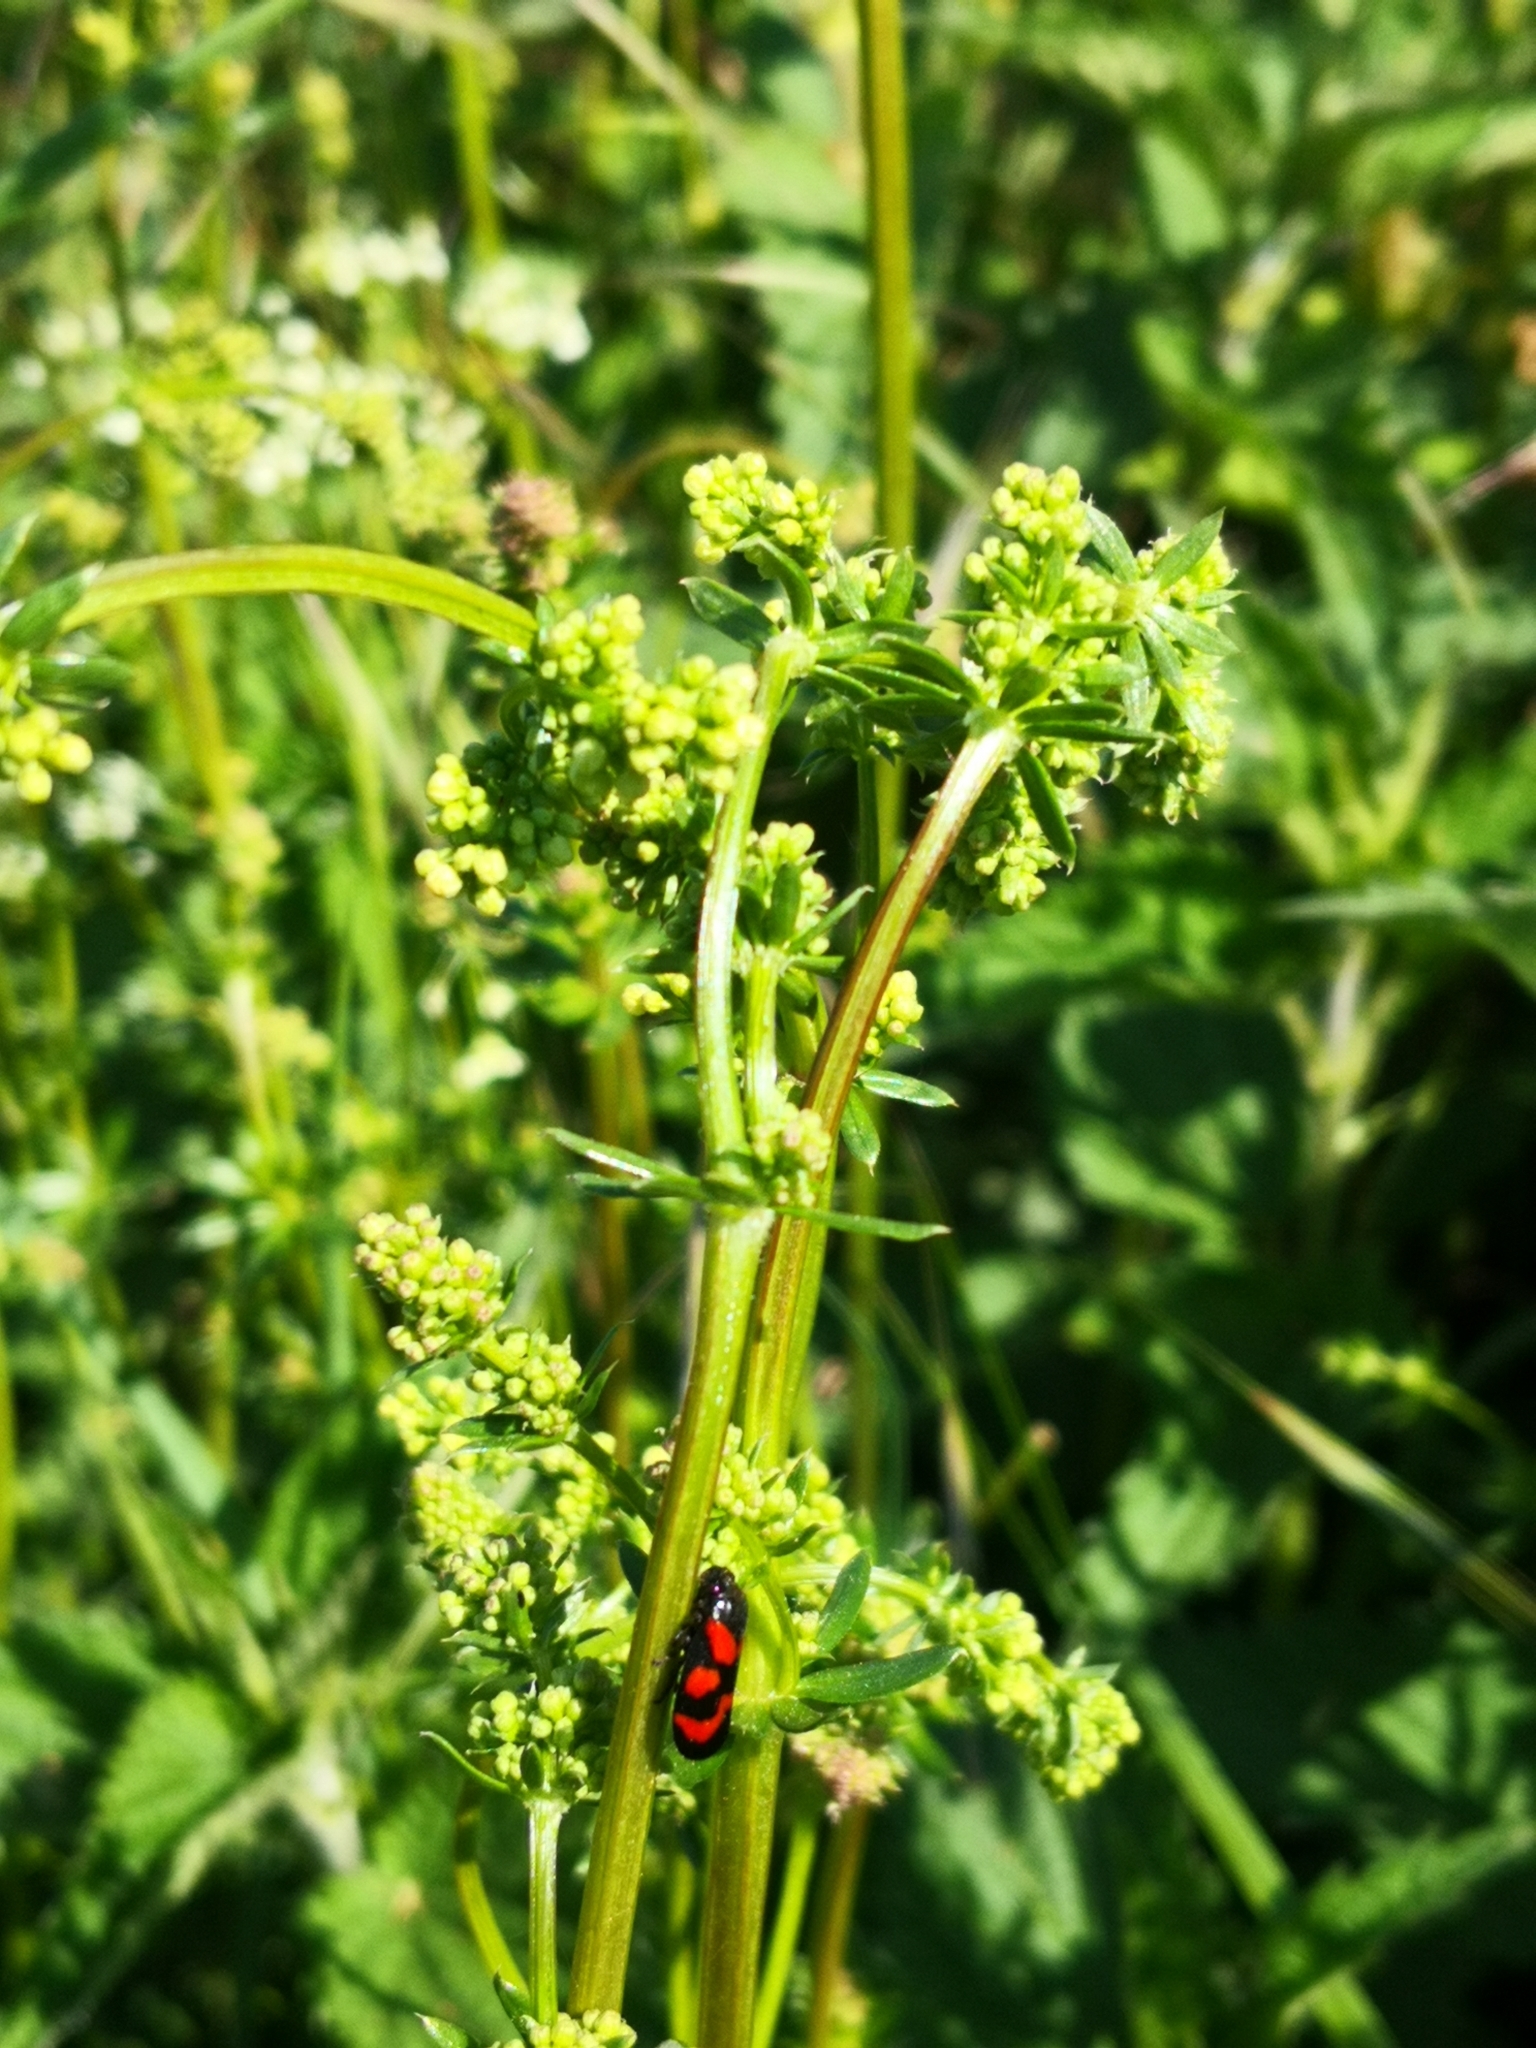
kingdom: Animalia
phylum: Arthropoda
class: Insecta
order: Hemiptera
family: Cercopidae
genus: Cercopis
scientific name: Cercopis vulnerata
